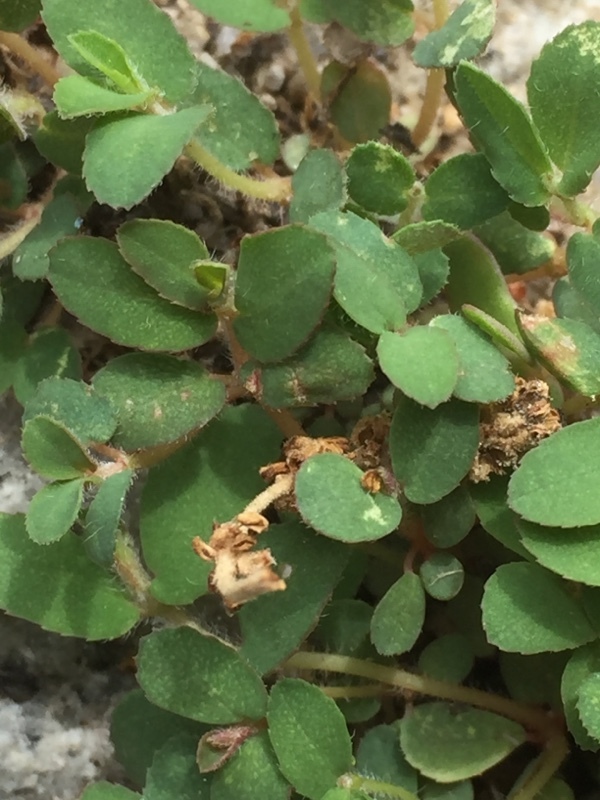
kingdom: Plantae
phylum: Tracheophyta
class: Magnoliopsida
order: Malpighiales
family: Euphorbiaceae
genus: Euphorbia
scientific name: Euphorbia maculata
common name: Spotted spurge
